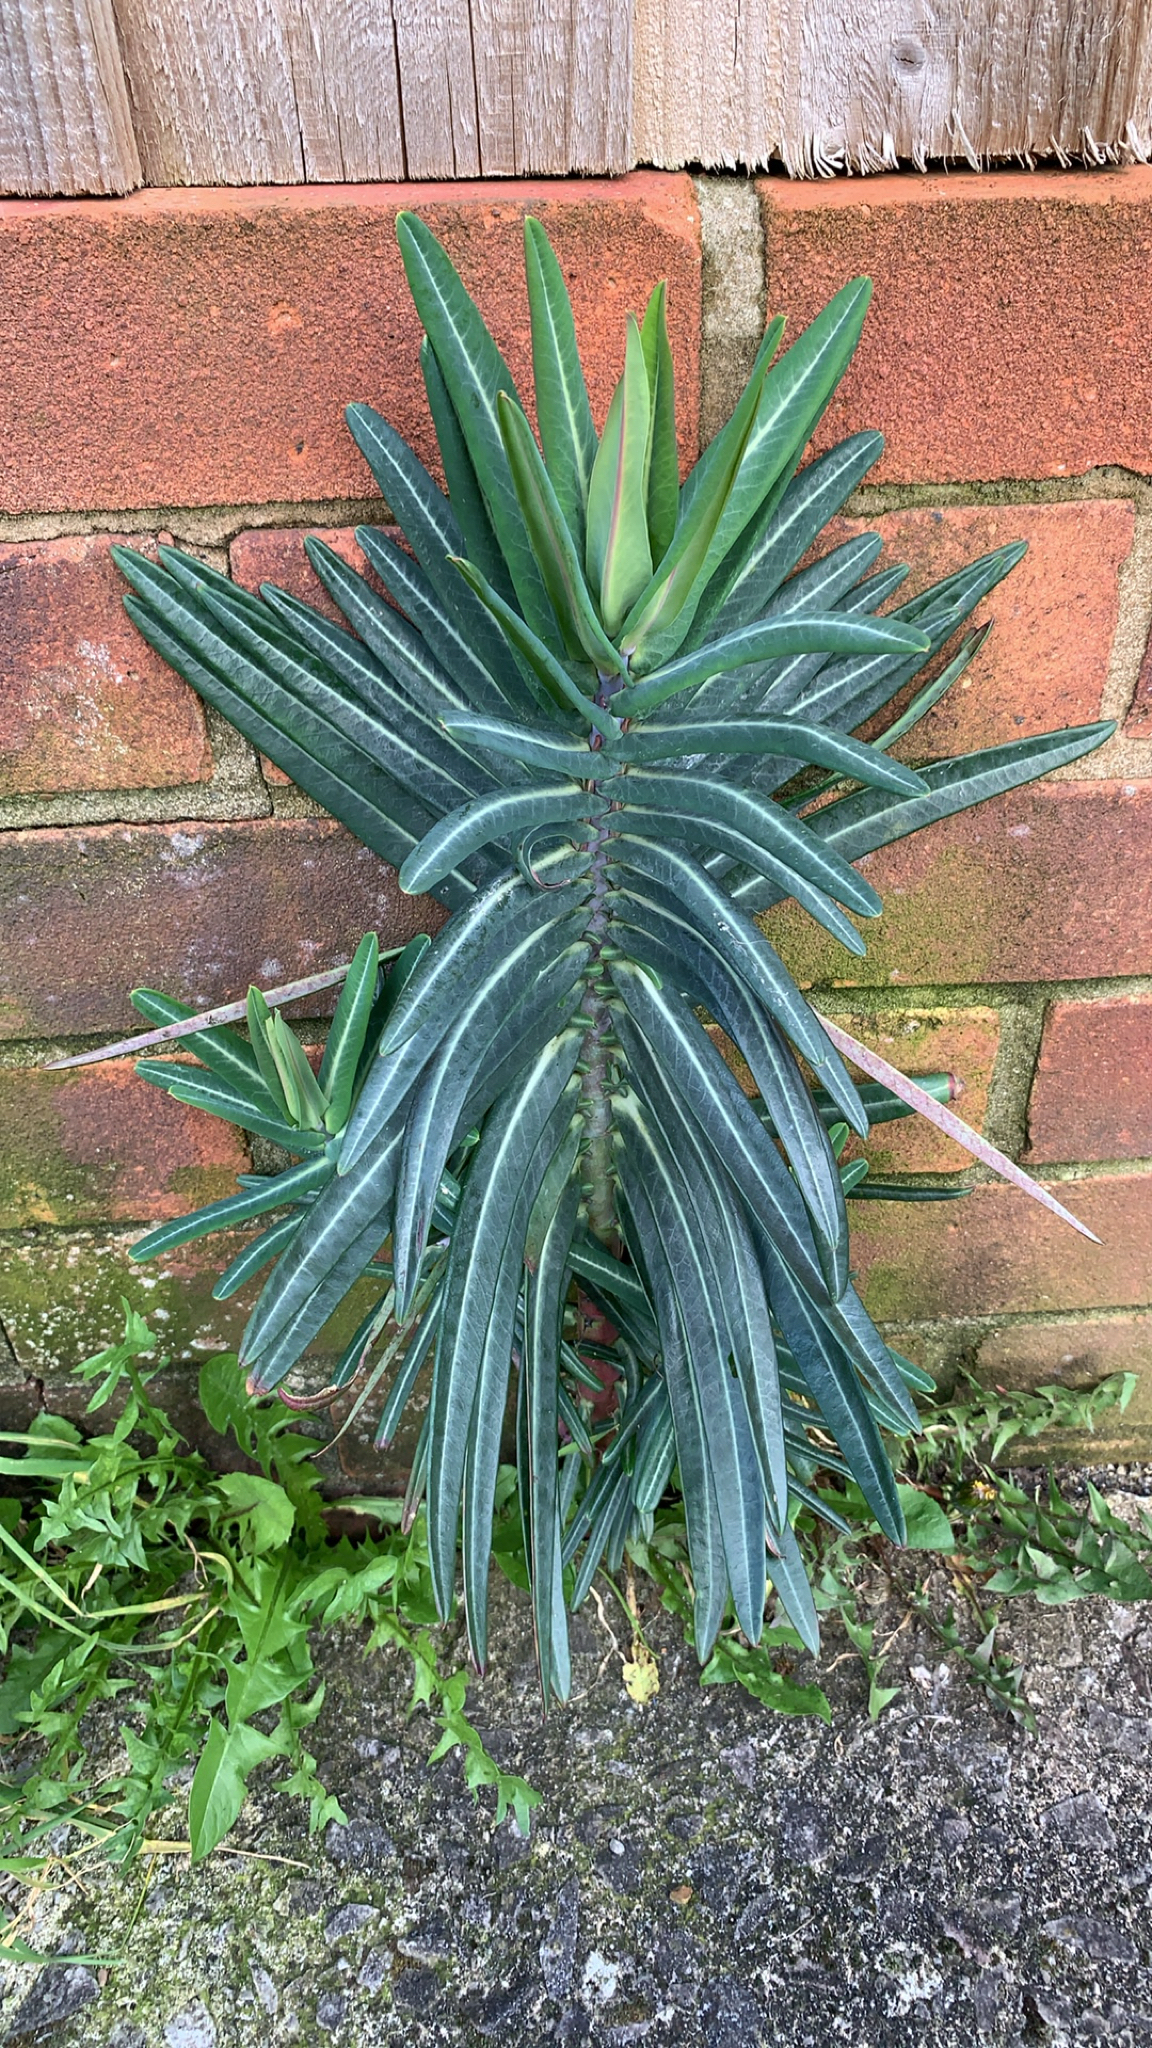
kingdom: Plantae
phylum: Tracheophyta
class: Magnoliopsida
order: Malpighiales
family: Euphorbiaceae
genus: Euphorbia
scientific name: Euphorbia lathyris
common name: Caper spurge
